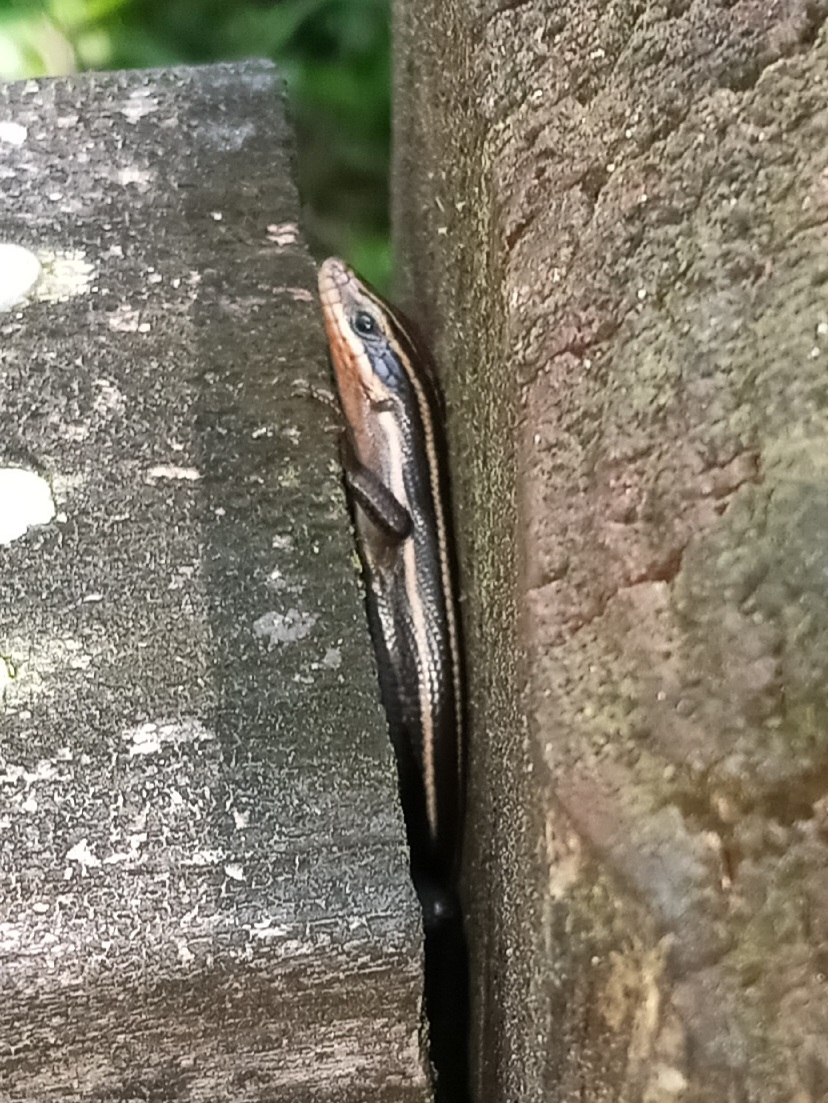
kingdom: Animalia
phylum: Chordata
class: Squamata
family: Scincidae
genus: Plestiodon
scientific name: Plestiodon fasciatus
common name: Five-lined skink
